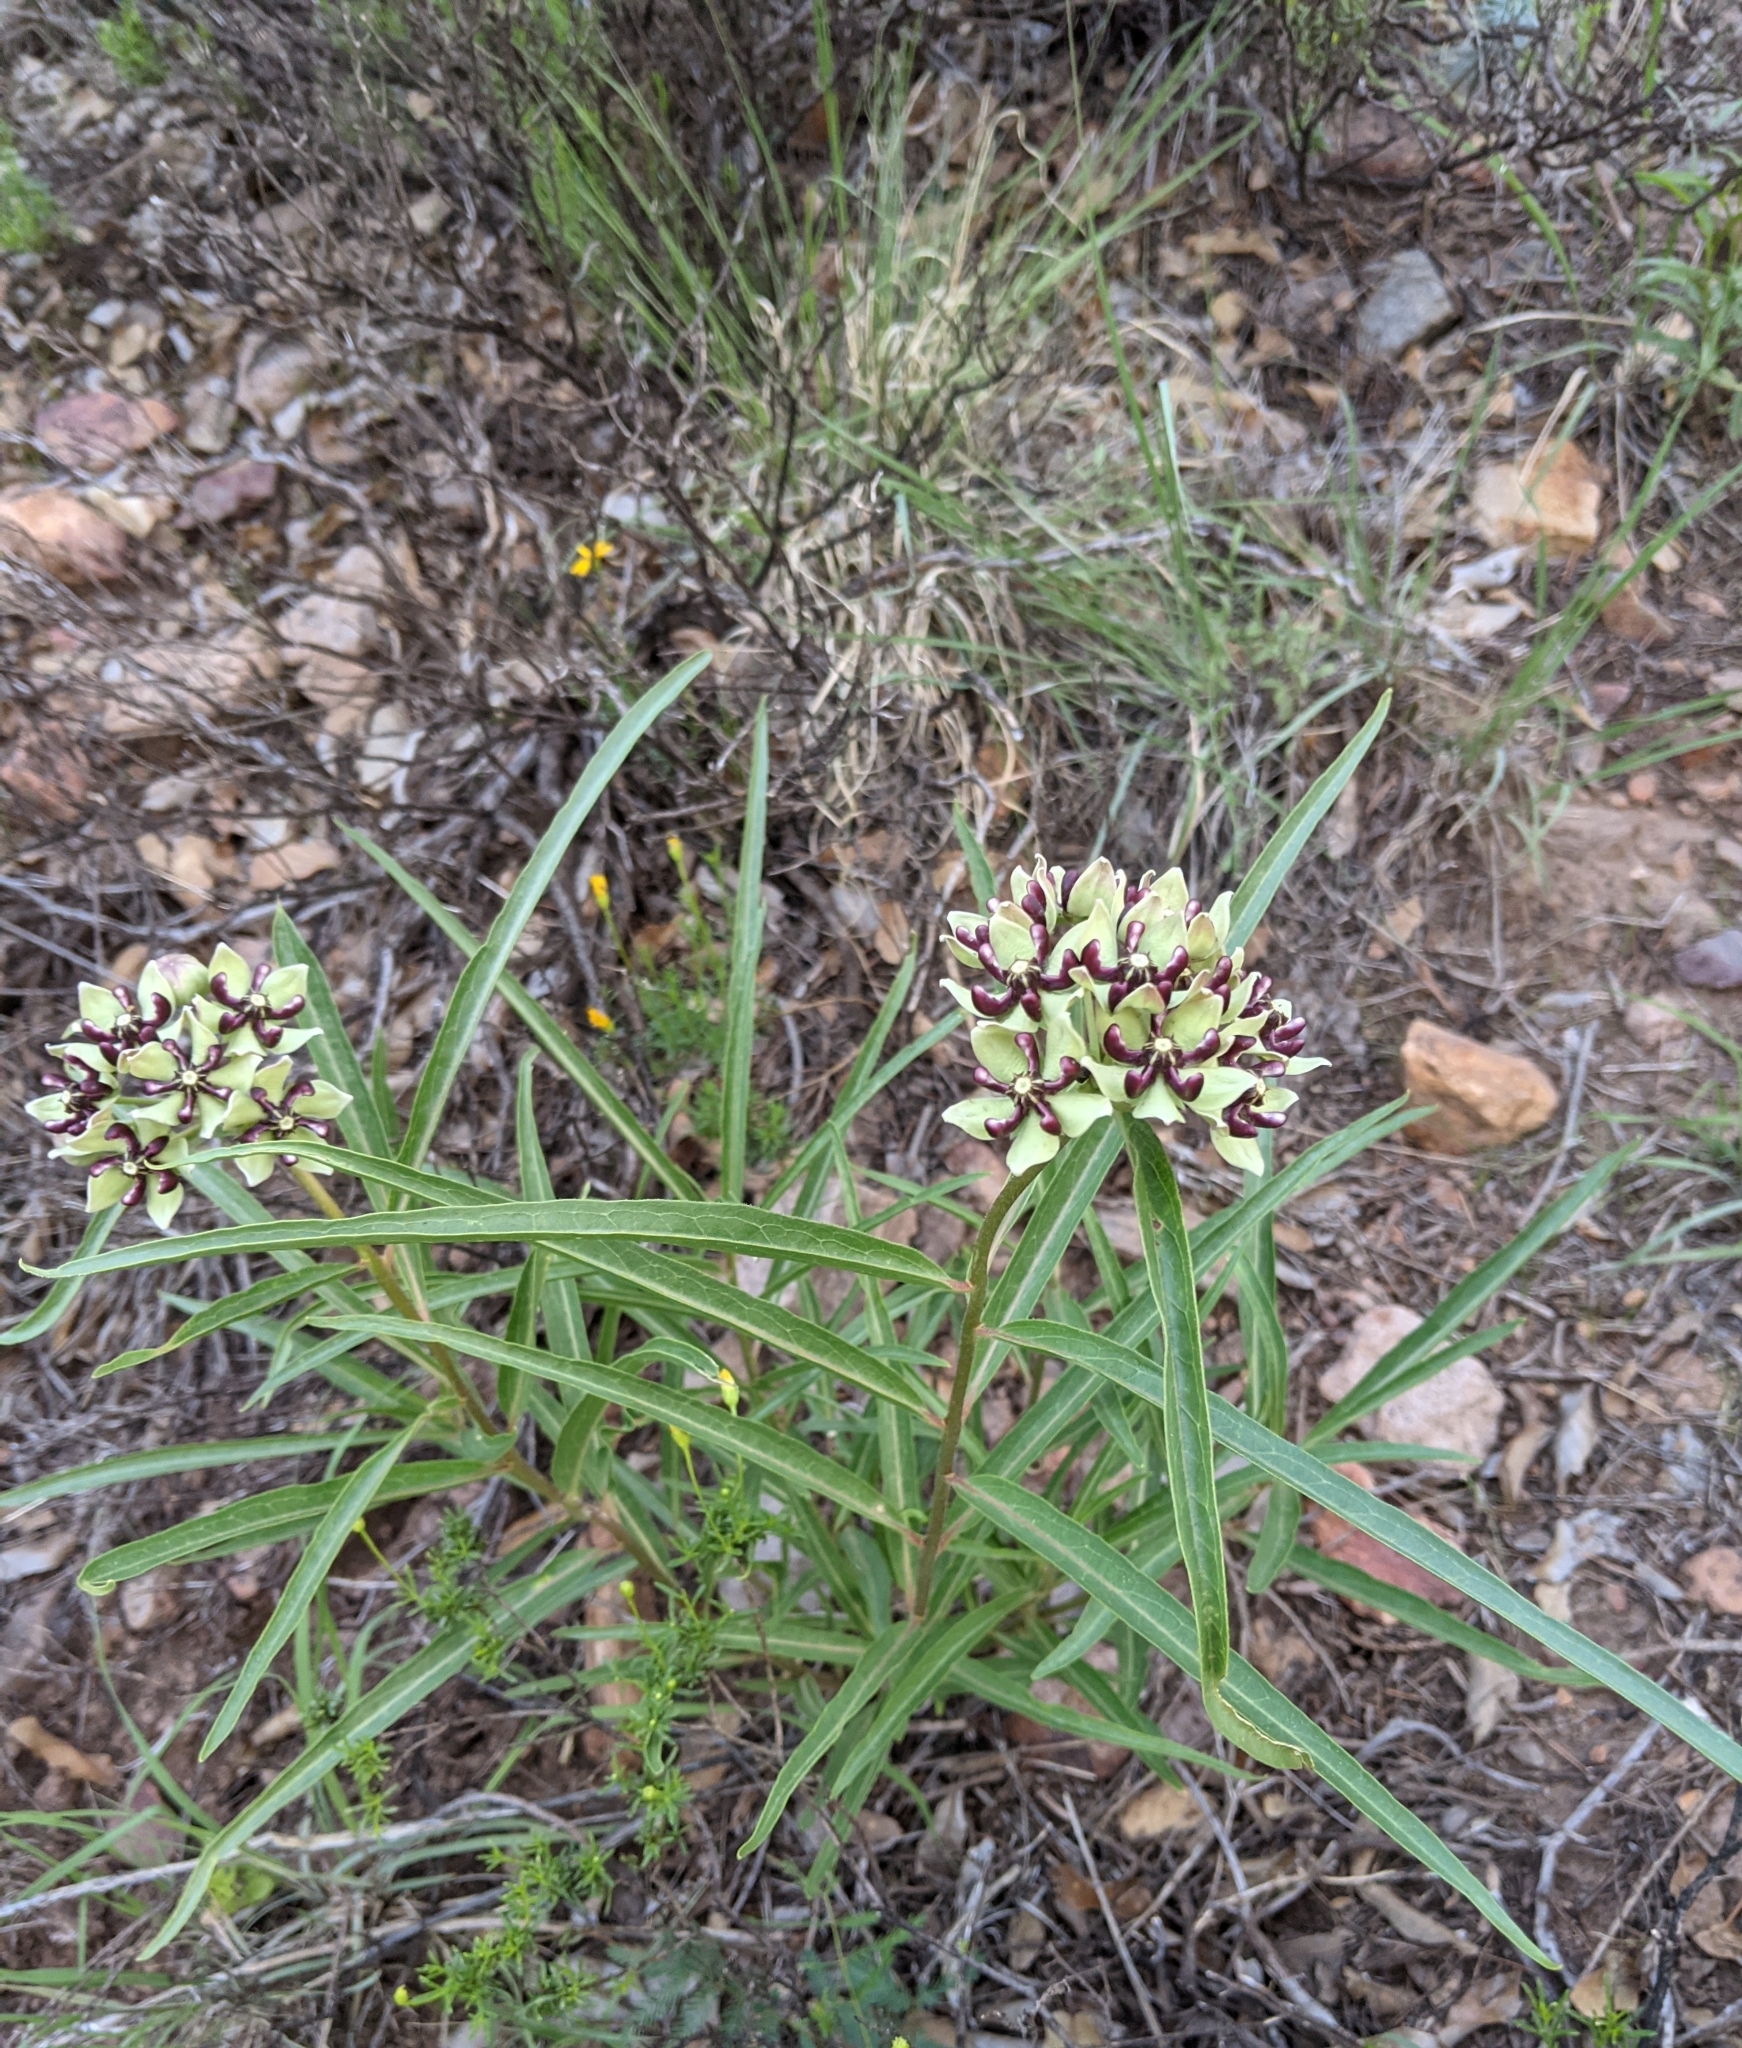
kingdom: Plantae
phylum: Tracheophyta
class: Magnoliopsida
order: Gentianales
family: Apocynaceae
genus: Asclepias
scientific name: Asclepias asperula
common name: Antelope horns
